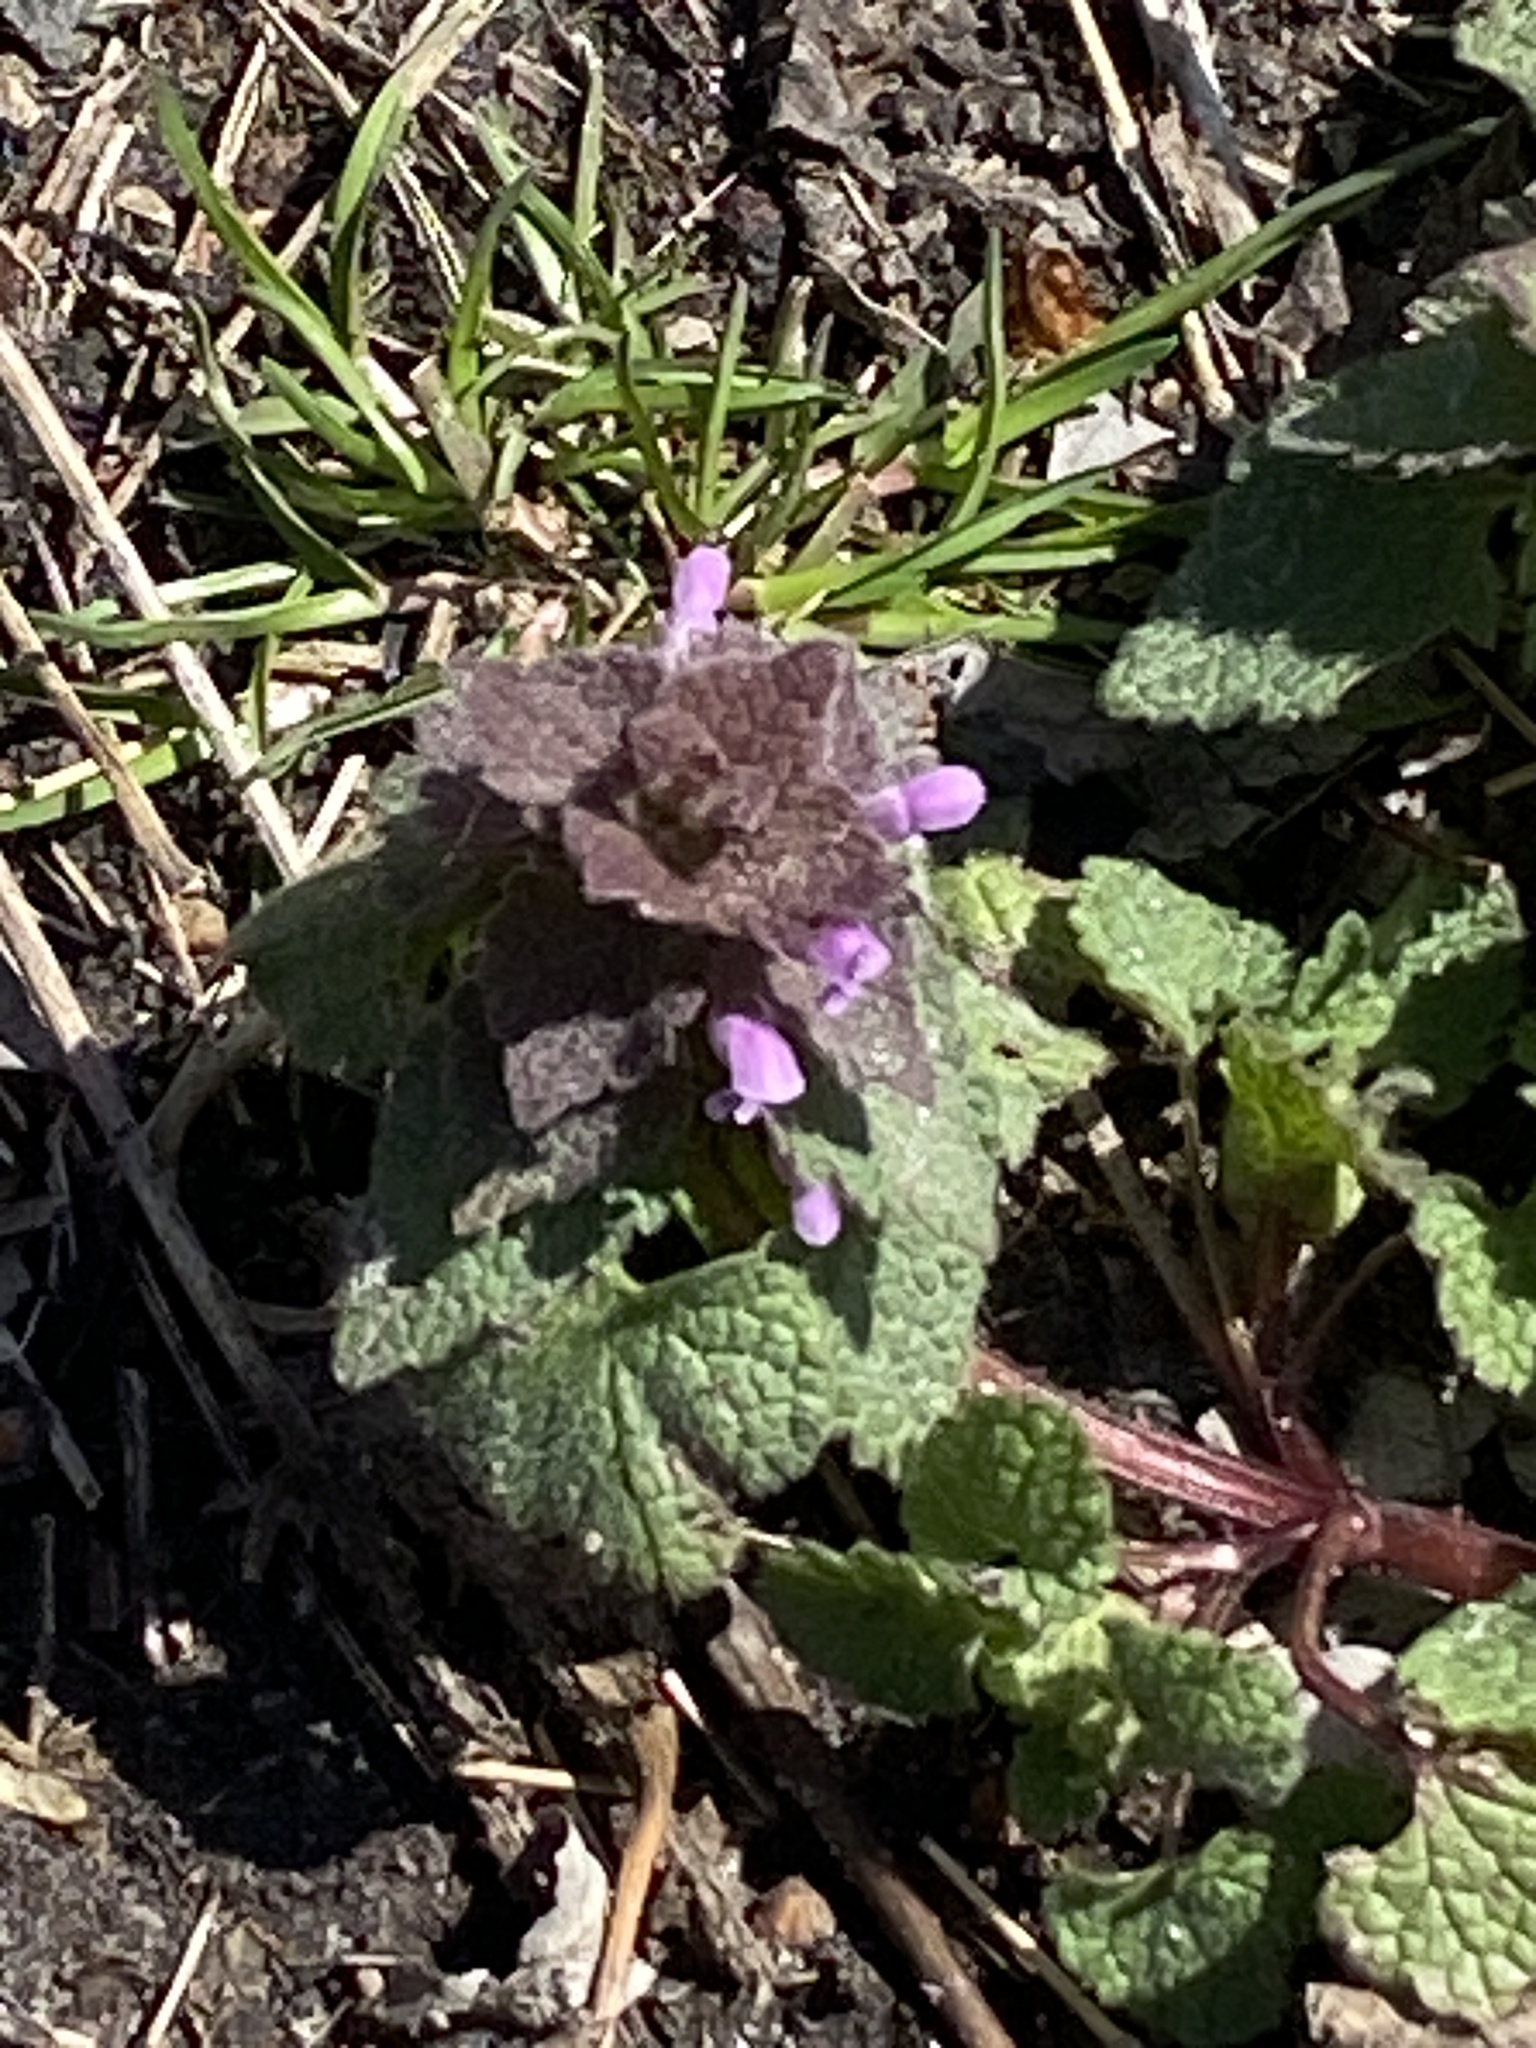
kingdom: Plantae
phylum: Tracheophyta
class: Magnoliopsida
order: Lamiales
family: Lamiaceae
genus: Lamium
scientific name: Lamium purpureum
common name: Red dead-nettle
